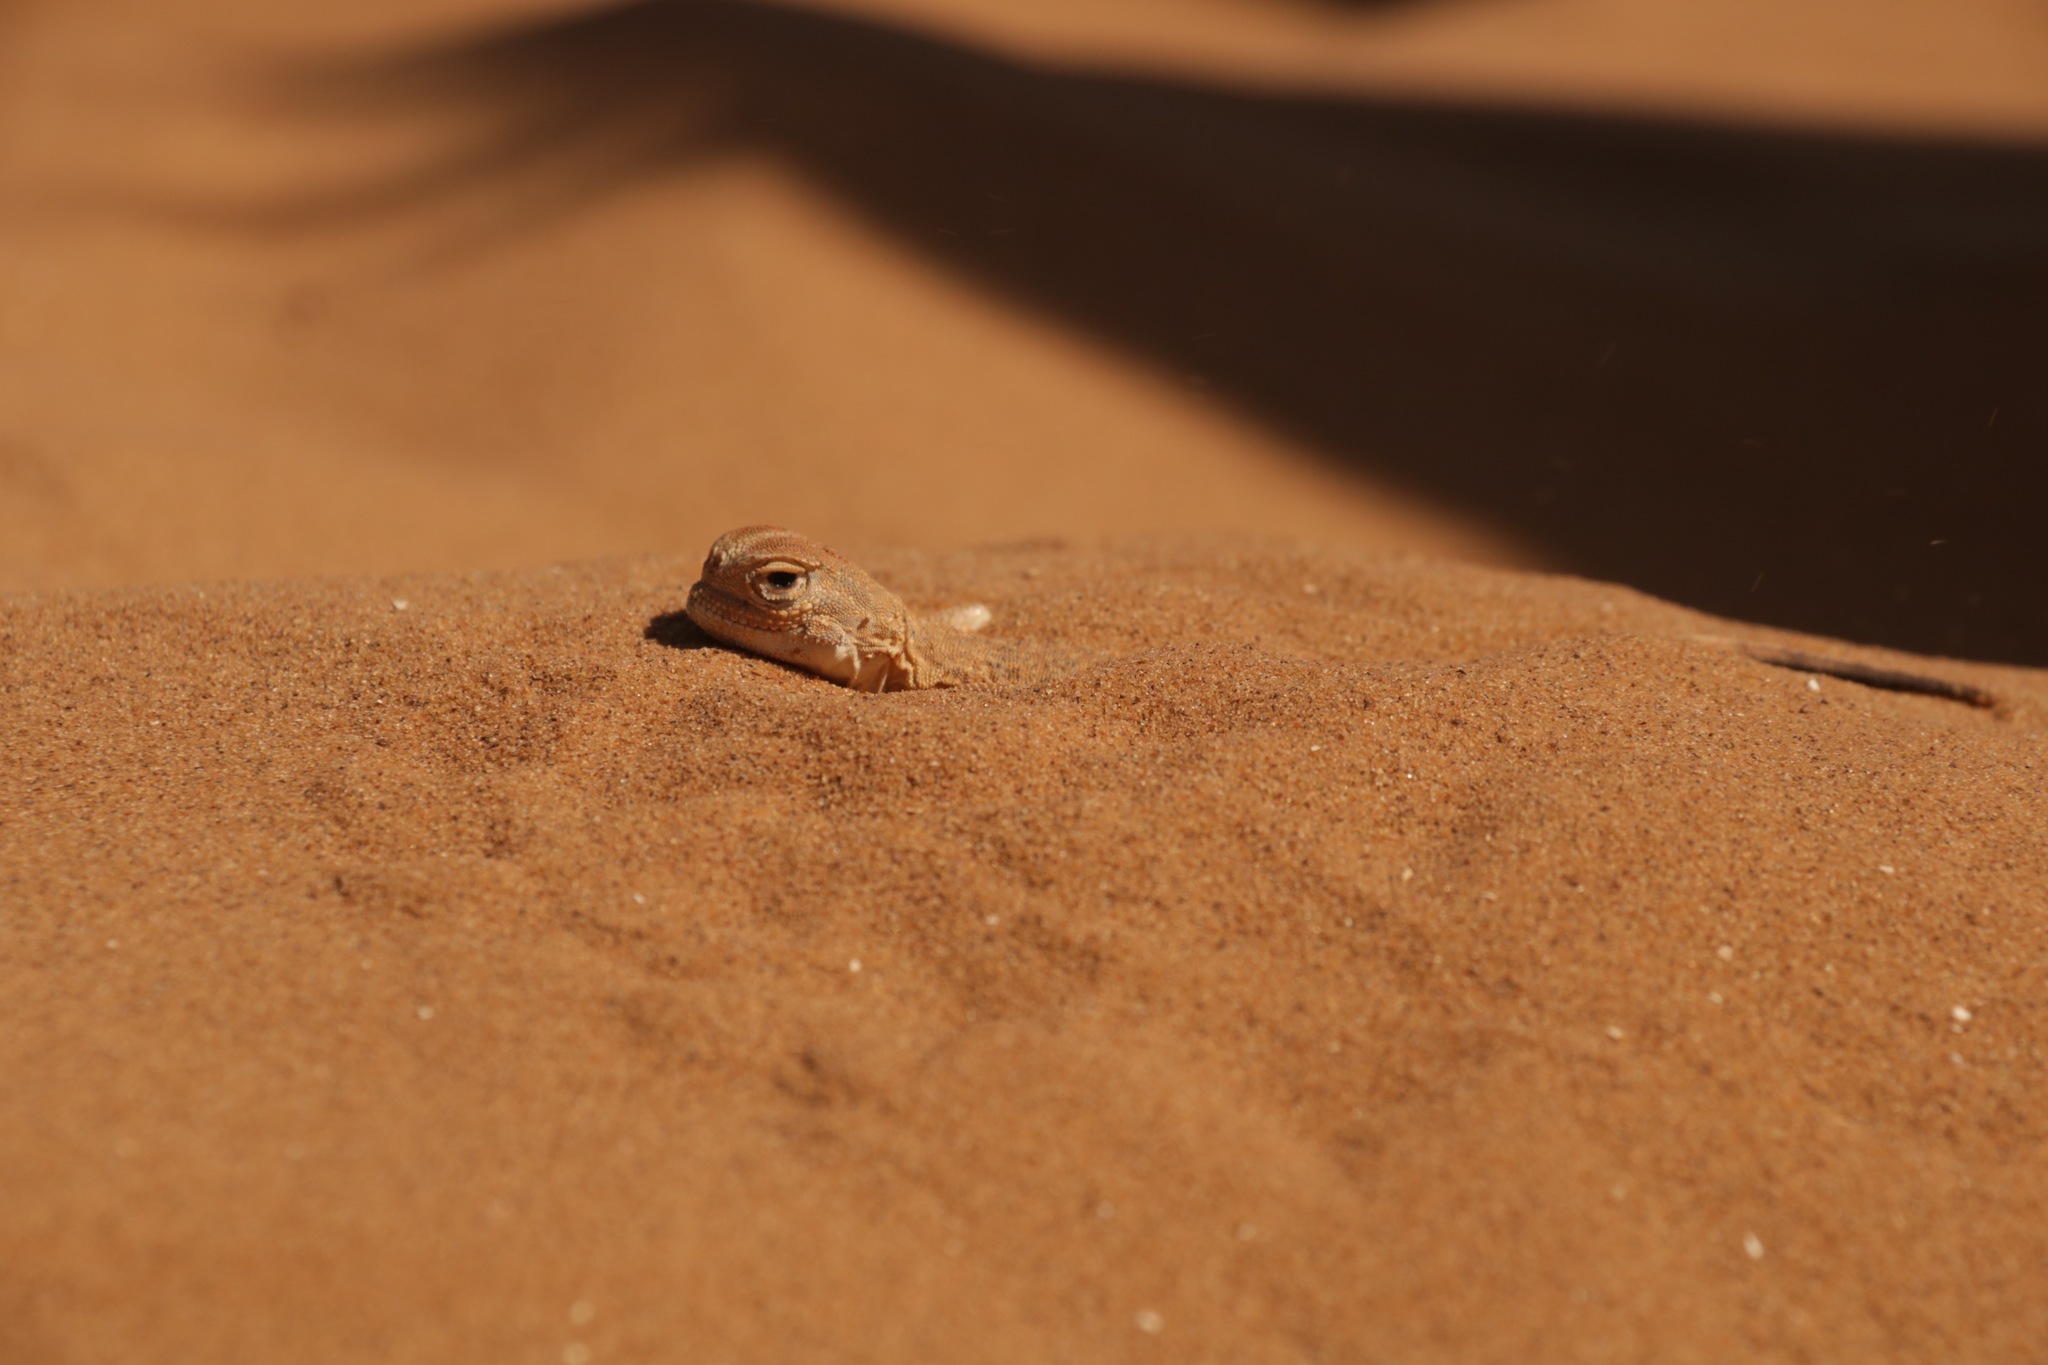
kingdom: Animalia
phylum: Chordata
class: Squamata
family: Agamidae
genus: Phrynocephalus
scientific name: Phrynocephalus mystaceus
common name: Secret toadhead agama
